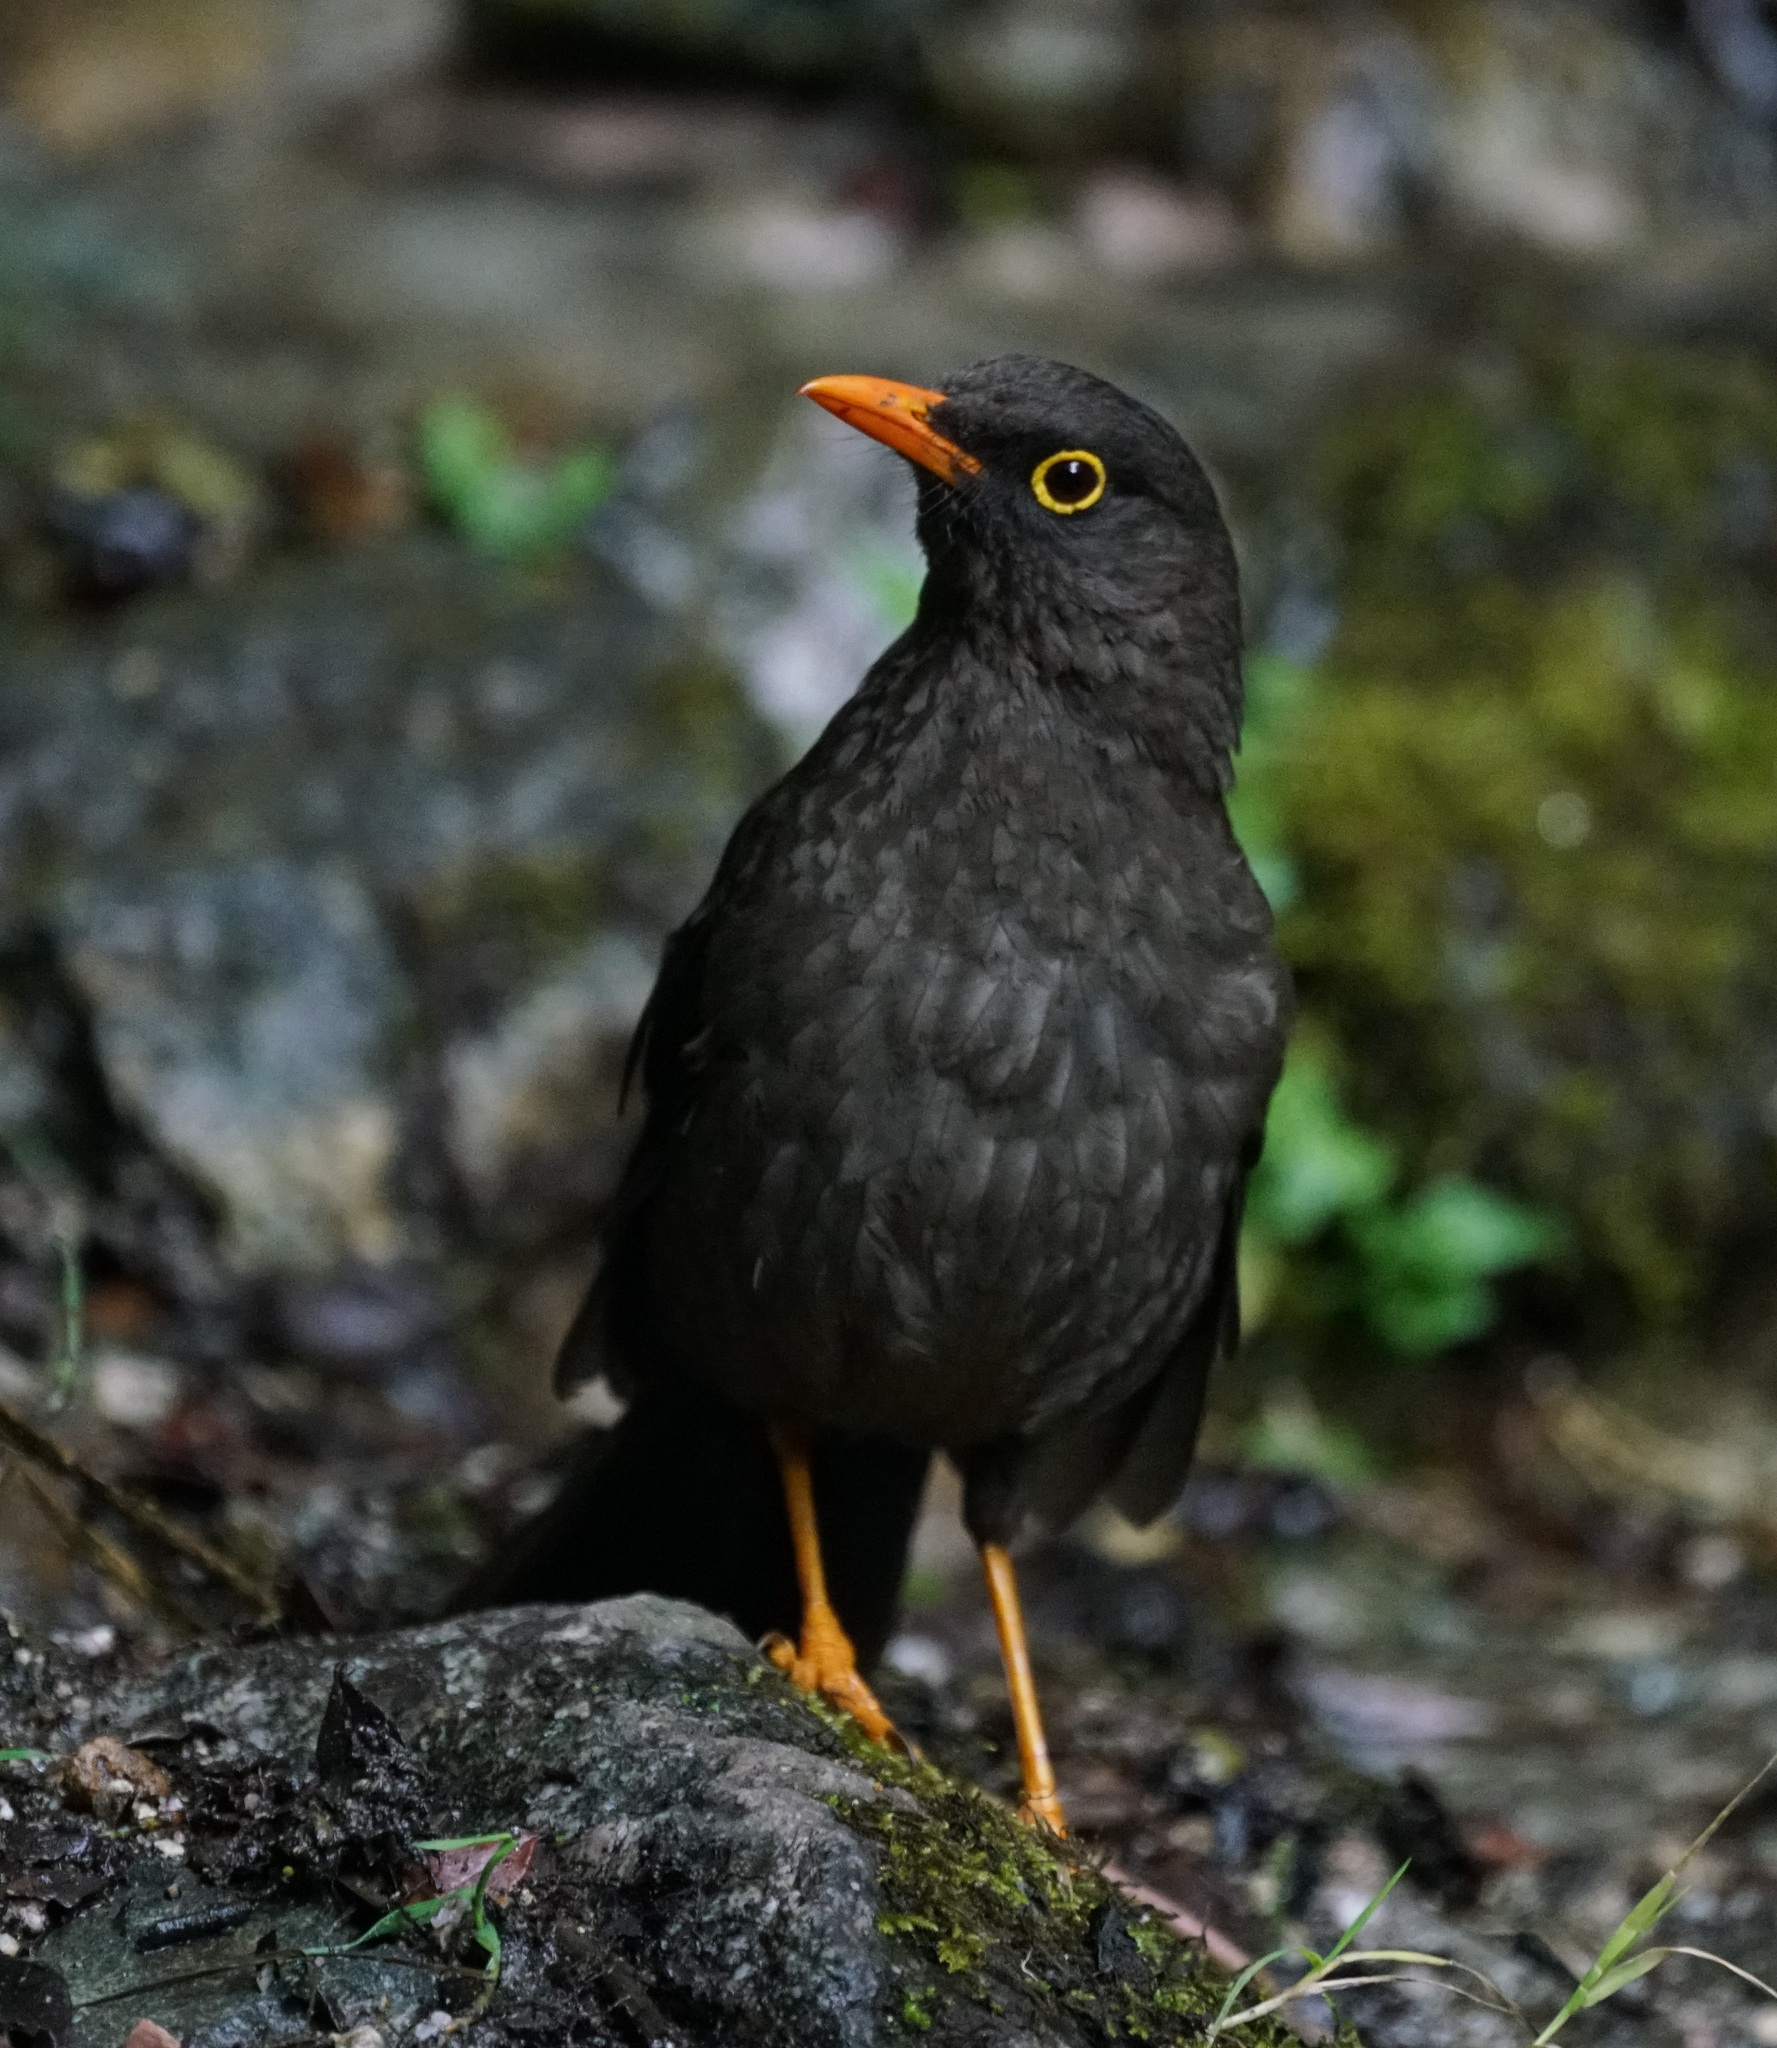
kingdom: Animalia
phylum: Chordata
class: Aves
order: Passeriformes
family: Turdidae
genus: Turdus
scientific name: Turdus fuscater
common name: Great thrush
